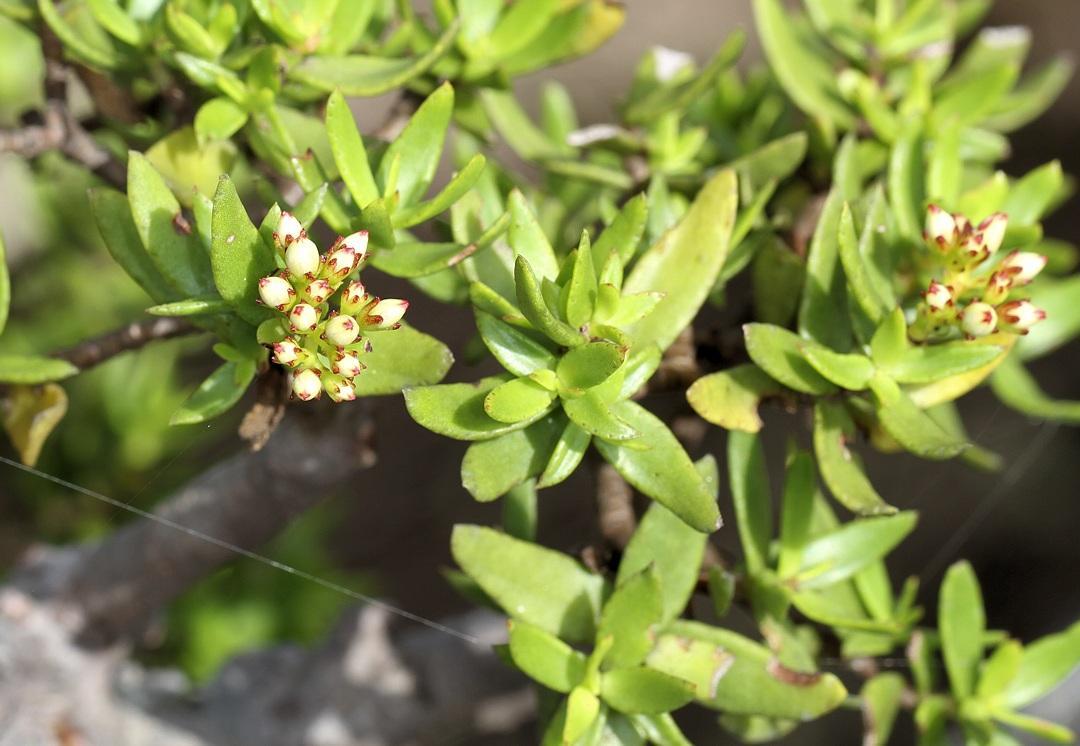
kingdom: Plantae
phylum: Tracheophyta
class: Magnoliopsida
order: Saxifragales
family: Crassulaceae
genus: Crassula
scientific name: Crassula sarcocaulis
